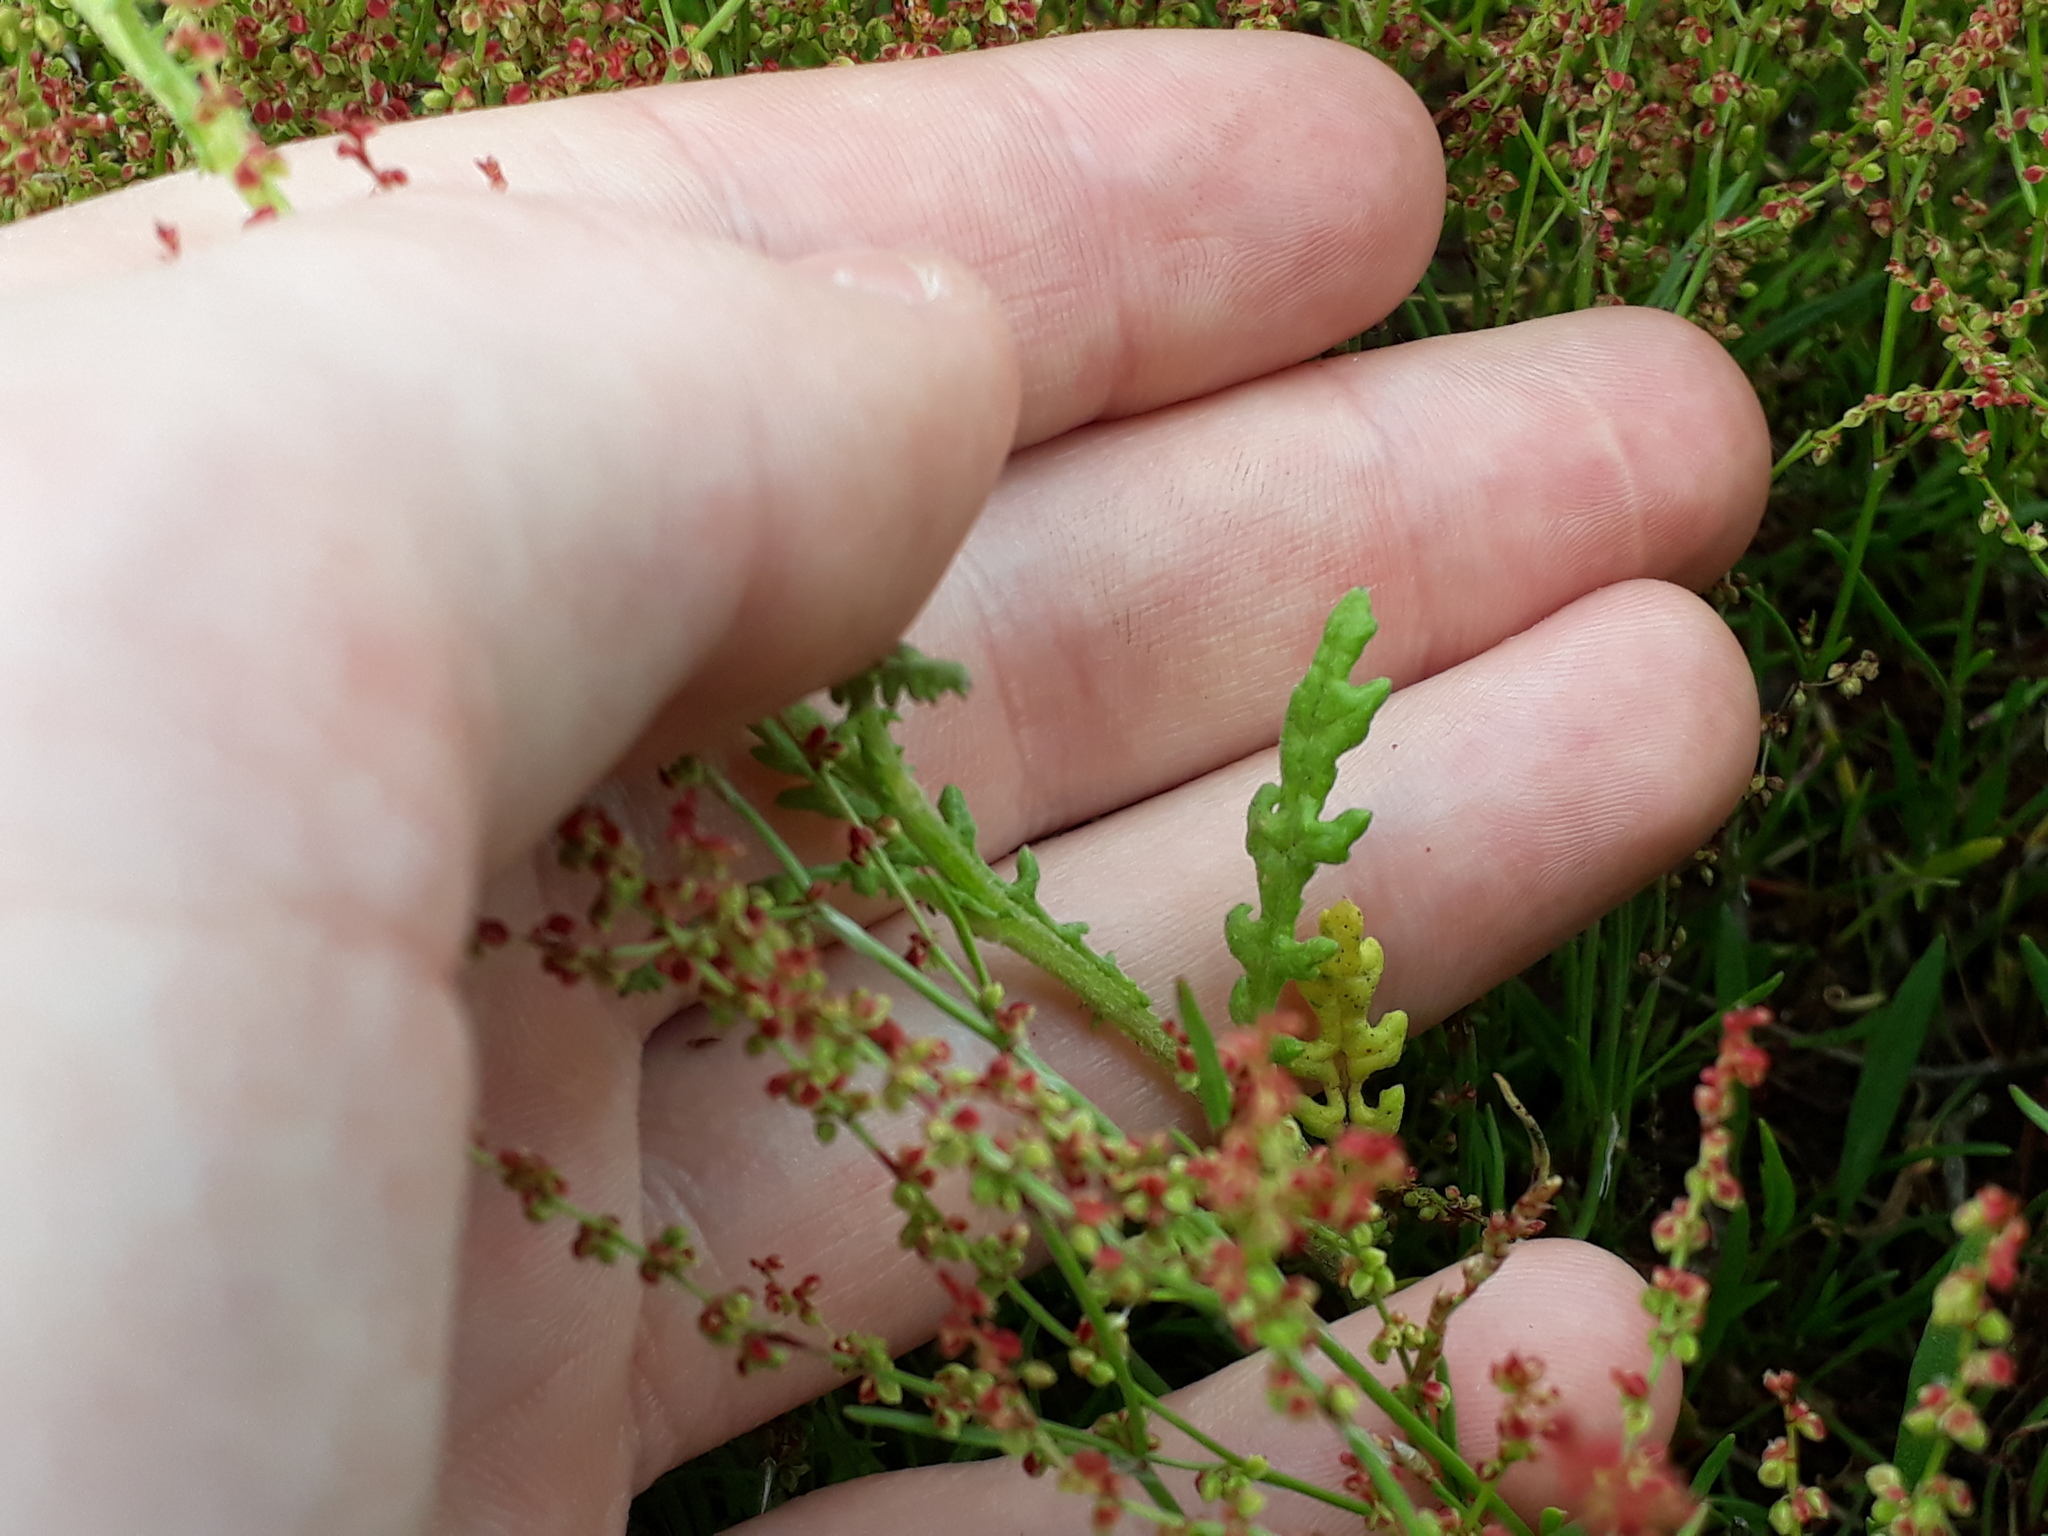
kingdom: Plantae
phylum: Tracheophyta
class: Magnoliopsida
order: Asterales
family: Asteraceae
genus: Senecio
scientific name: Senecio sylvaticus
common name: Woodland ragwort
